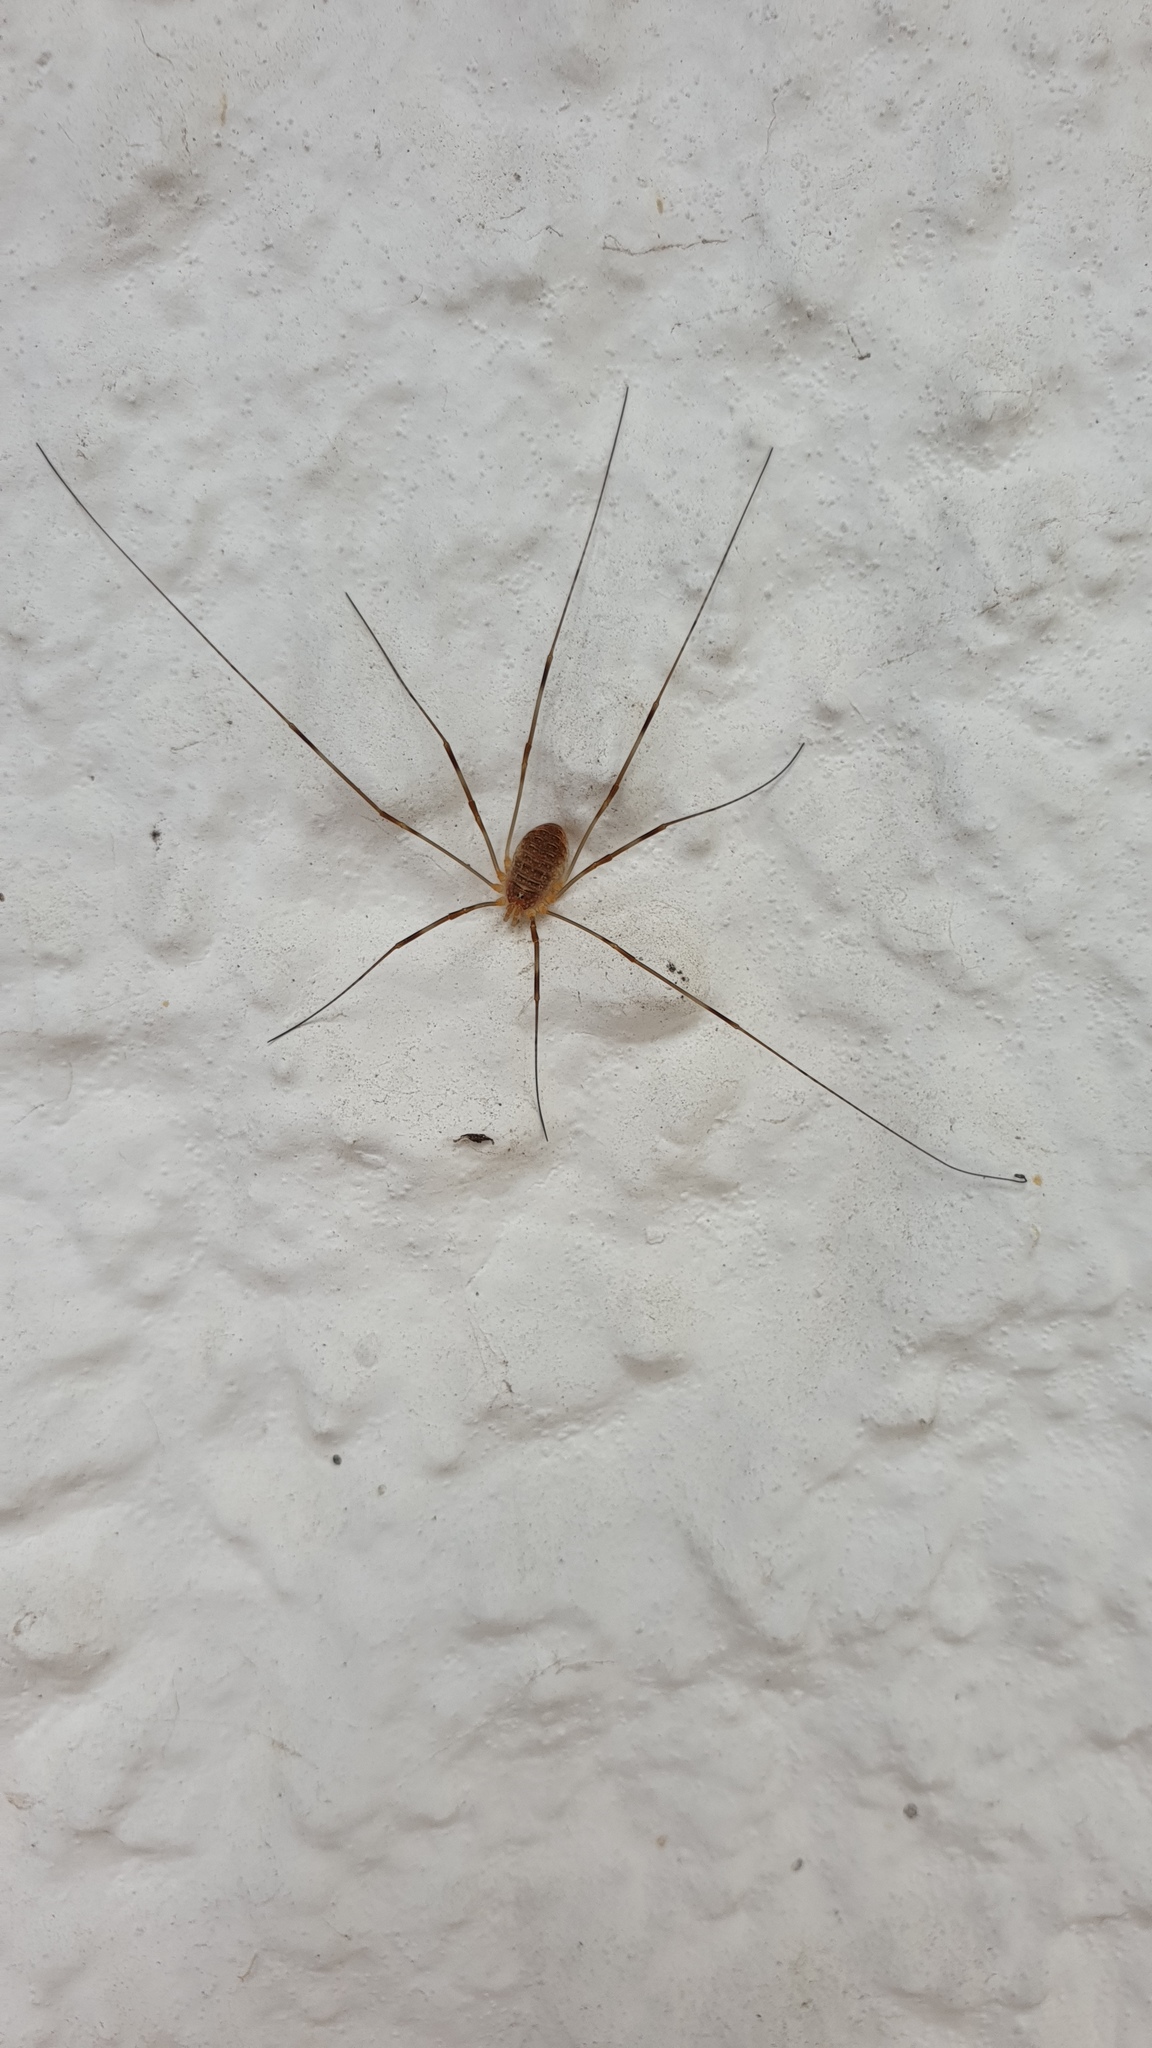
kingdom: Animalia
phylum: Arthropoda
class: Arachnida
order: Opiliones
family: Phalangiidae
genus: Opilio
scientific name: Opilio canestrinii
